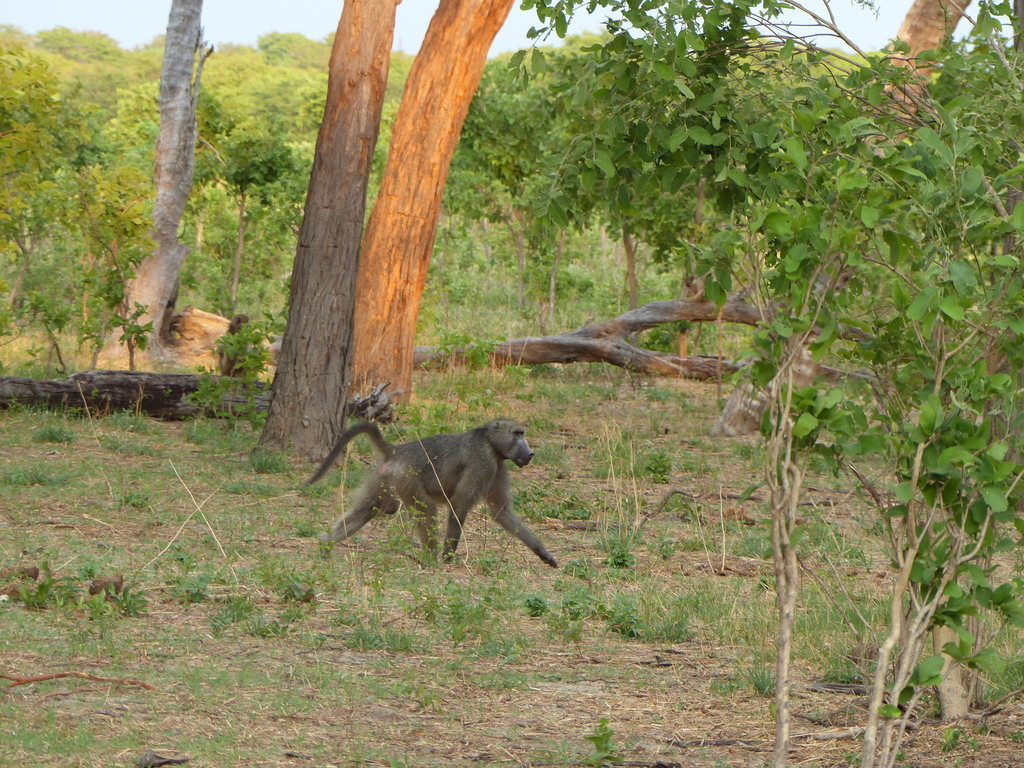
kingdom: Animalia
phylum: Chordata
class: Mammalia
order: Primates
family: Cercopithecidae
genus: Papio
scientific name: Papio ursinus
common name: Chacma baboon
